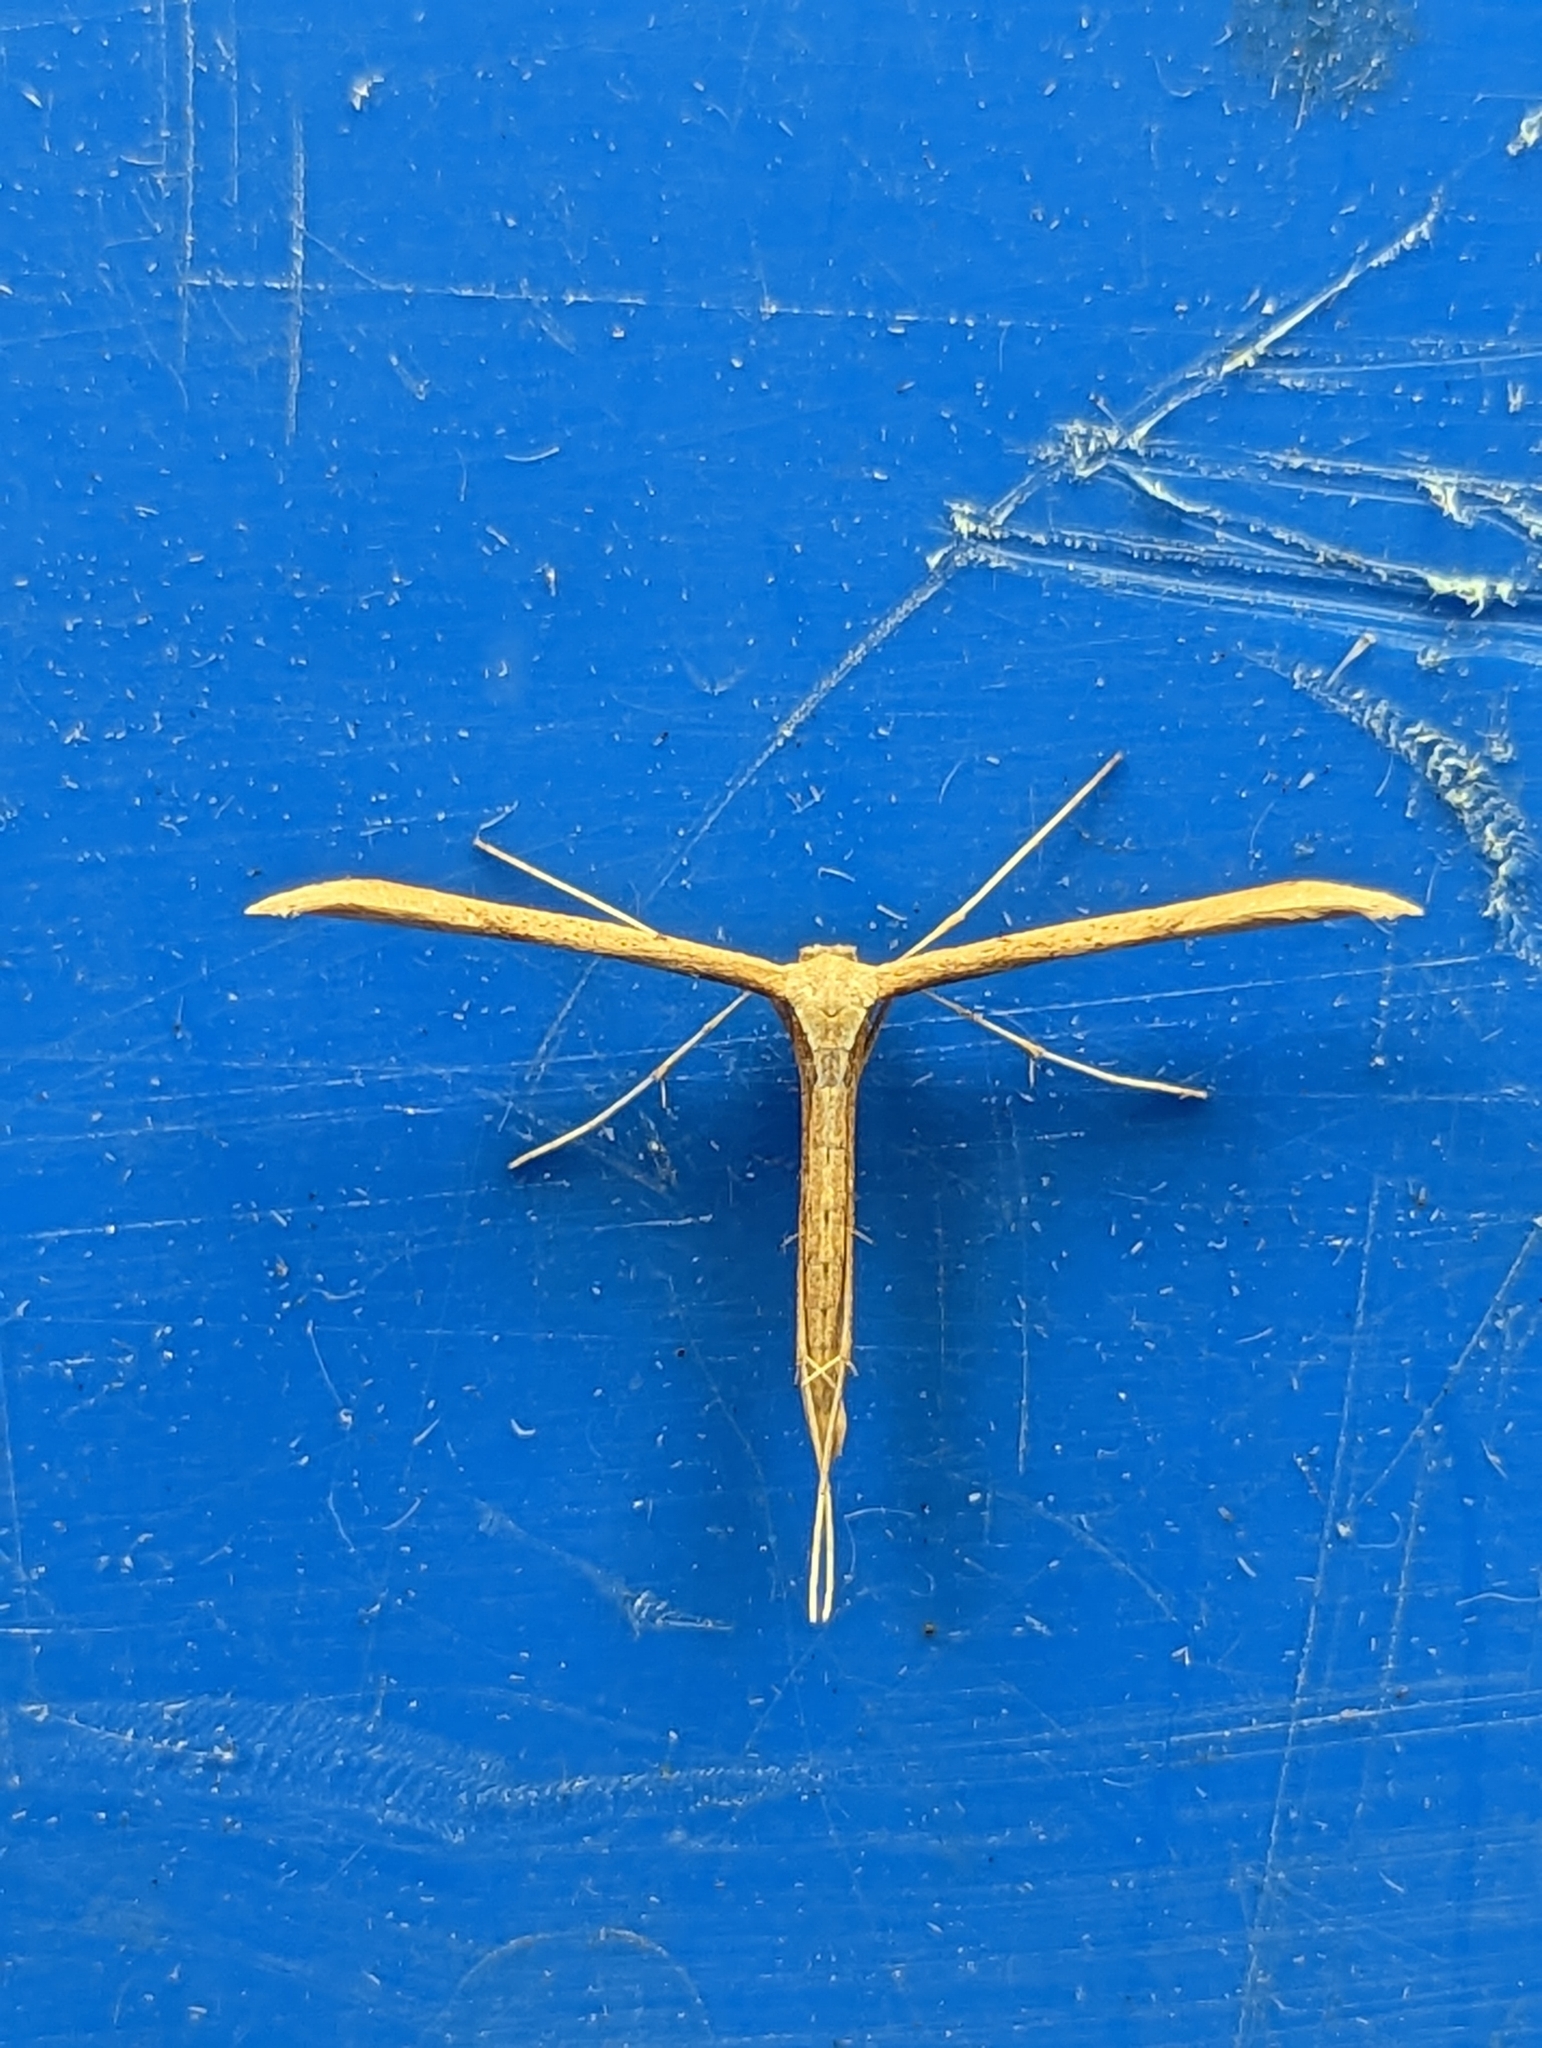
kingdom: Animalia
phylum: Arthropoda
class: Insecta
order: Lepidoptera
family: Pterophoridae
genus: Emmelina
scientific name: Emmelina monodactyla
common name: Common plume
